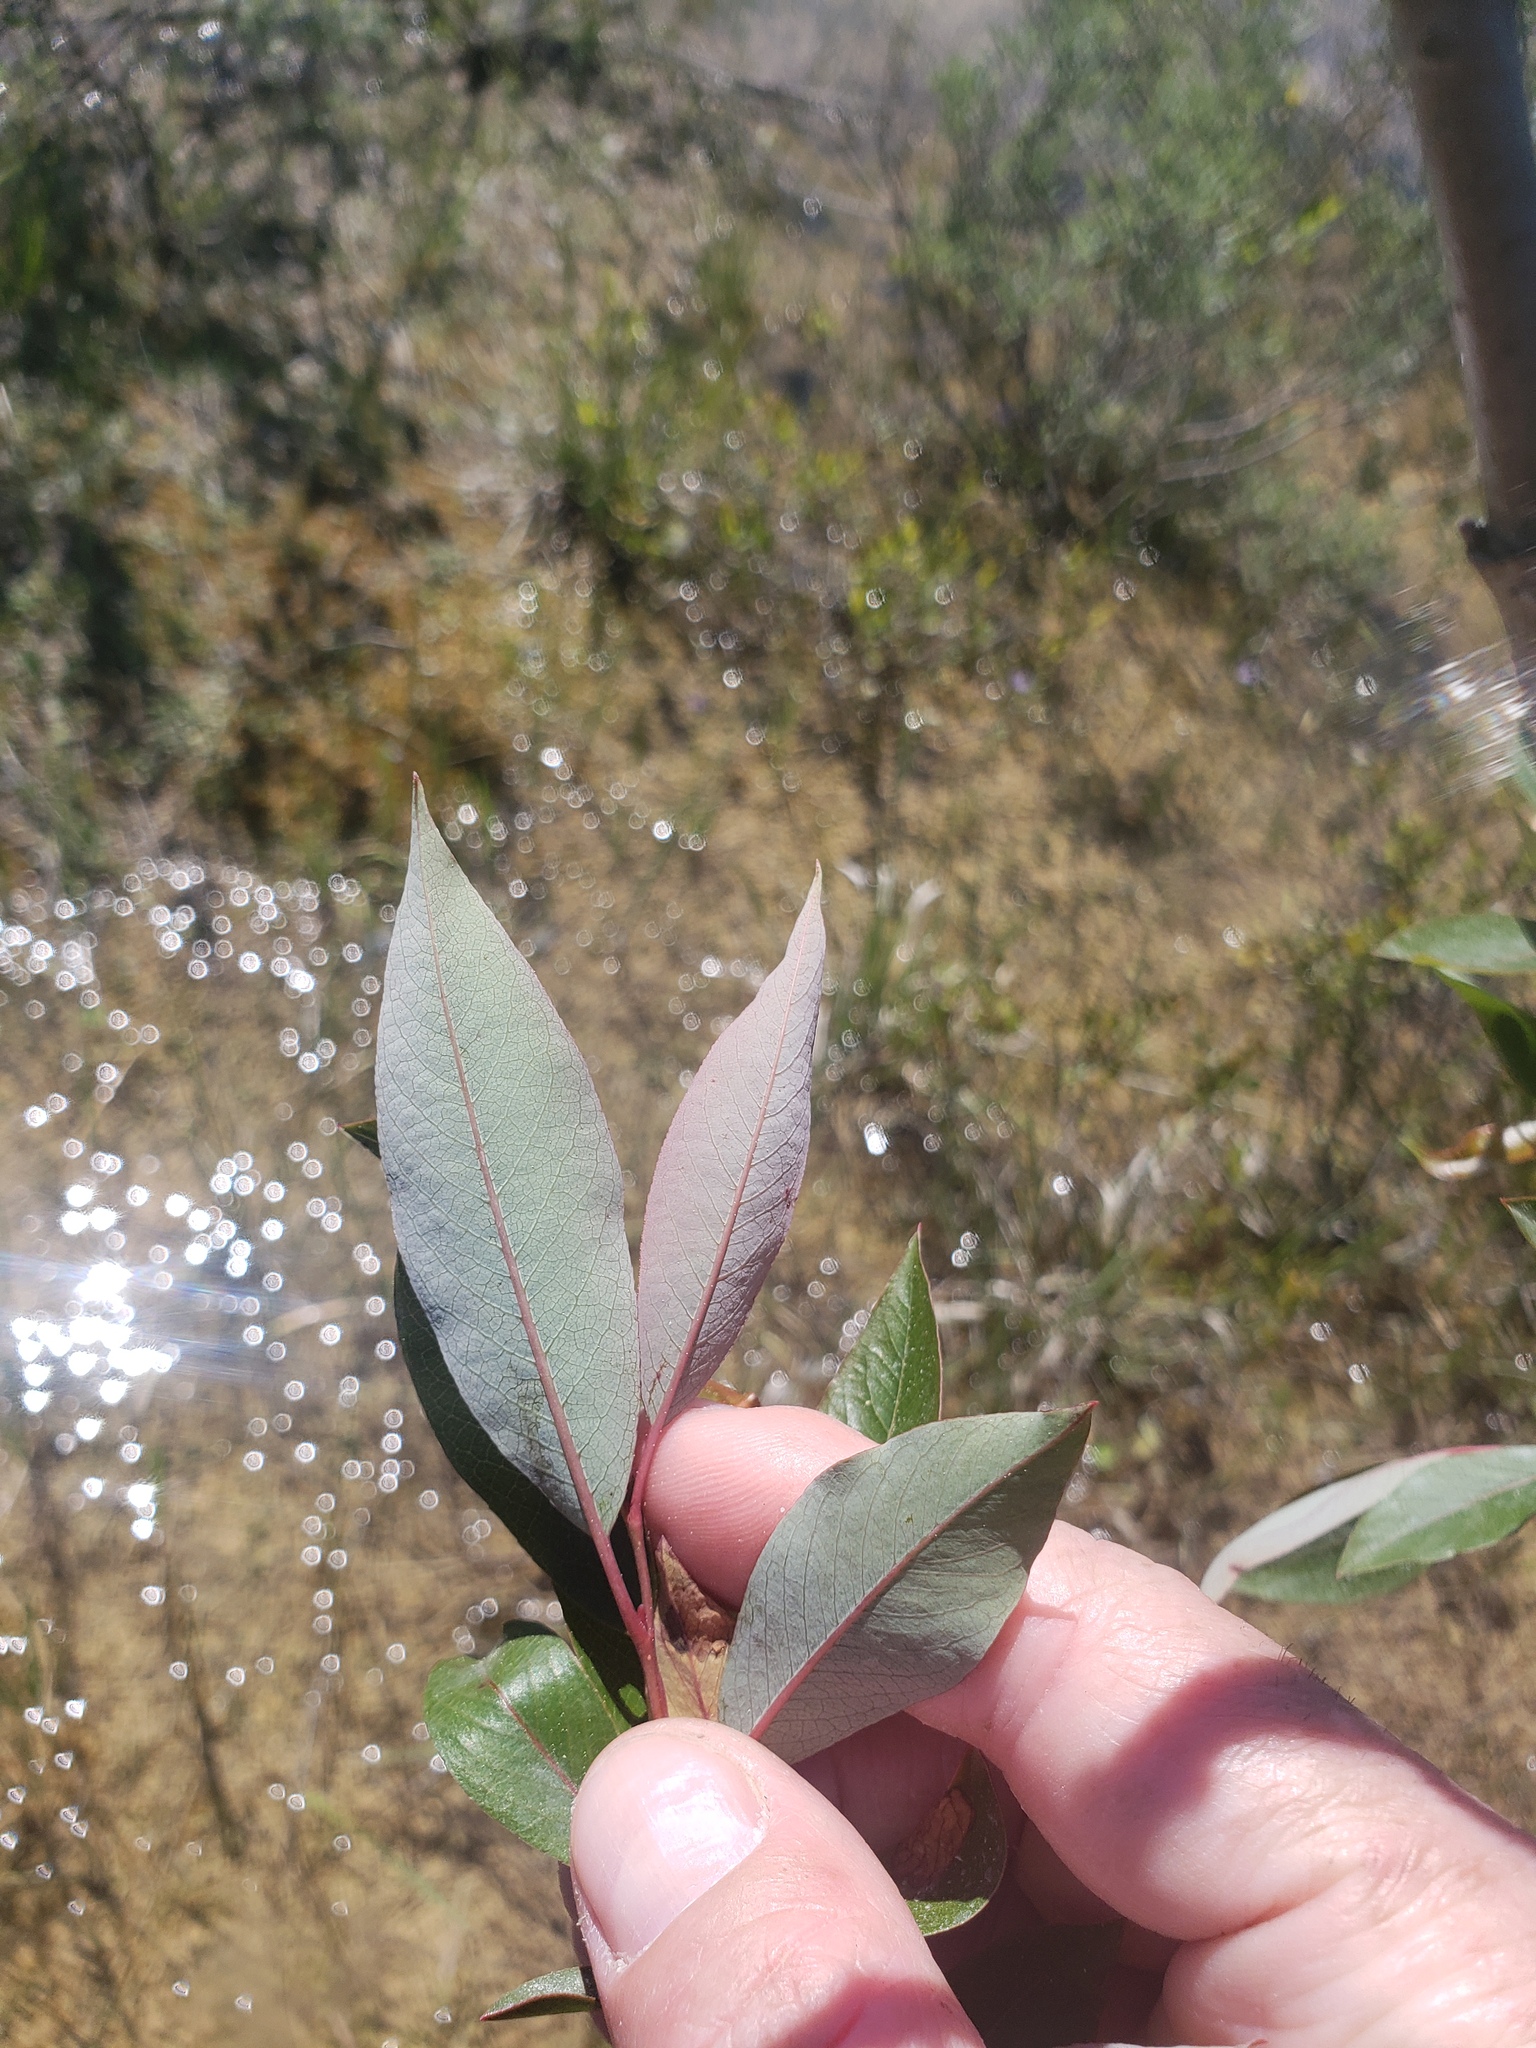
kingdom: Plantae
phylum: Tracheophyta
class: Magnoliopsida
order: Malpighiales
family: Salicaceae
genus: Salix
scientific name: Salix prolixa
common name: Mackenzie's willow
